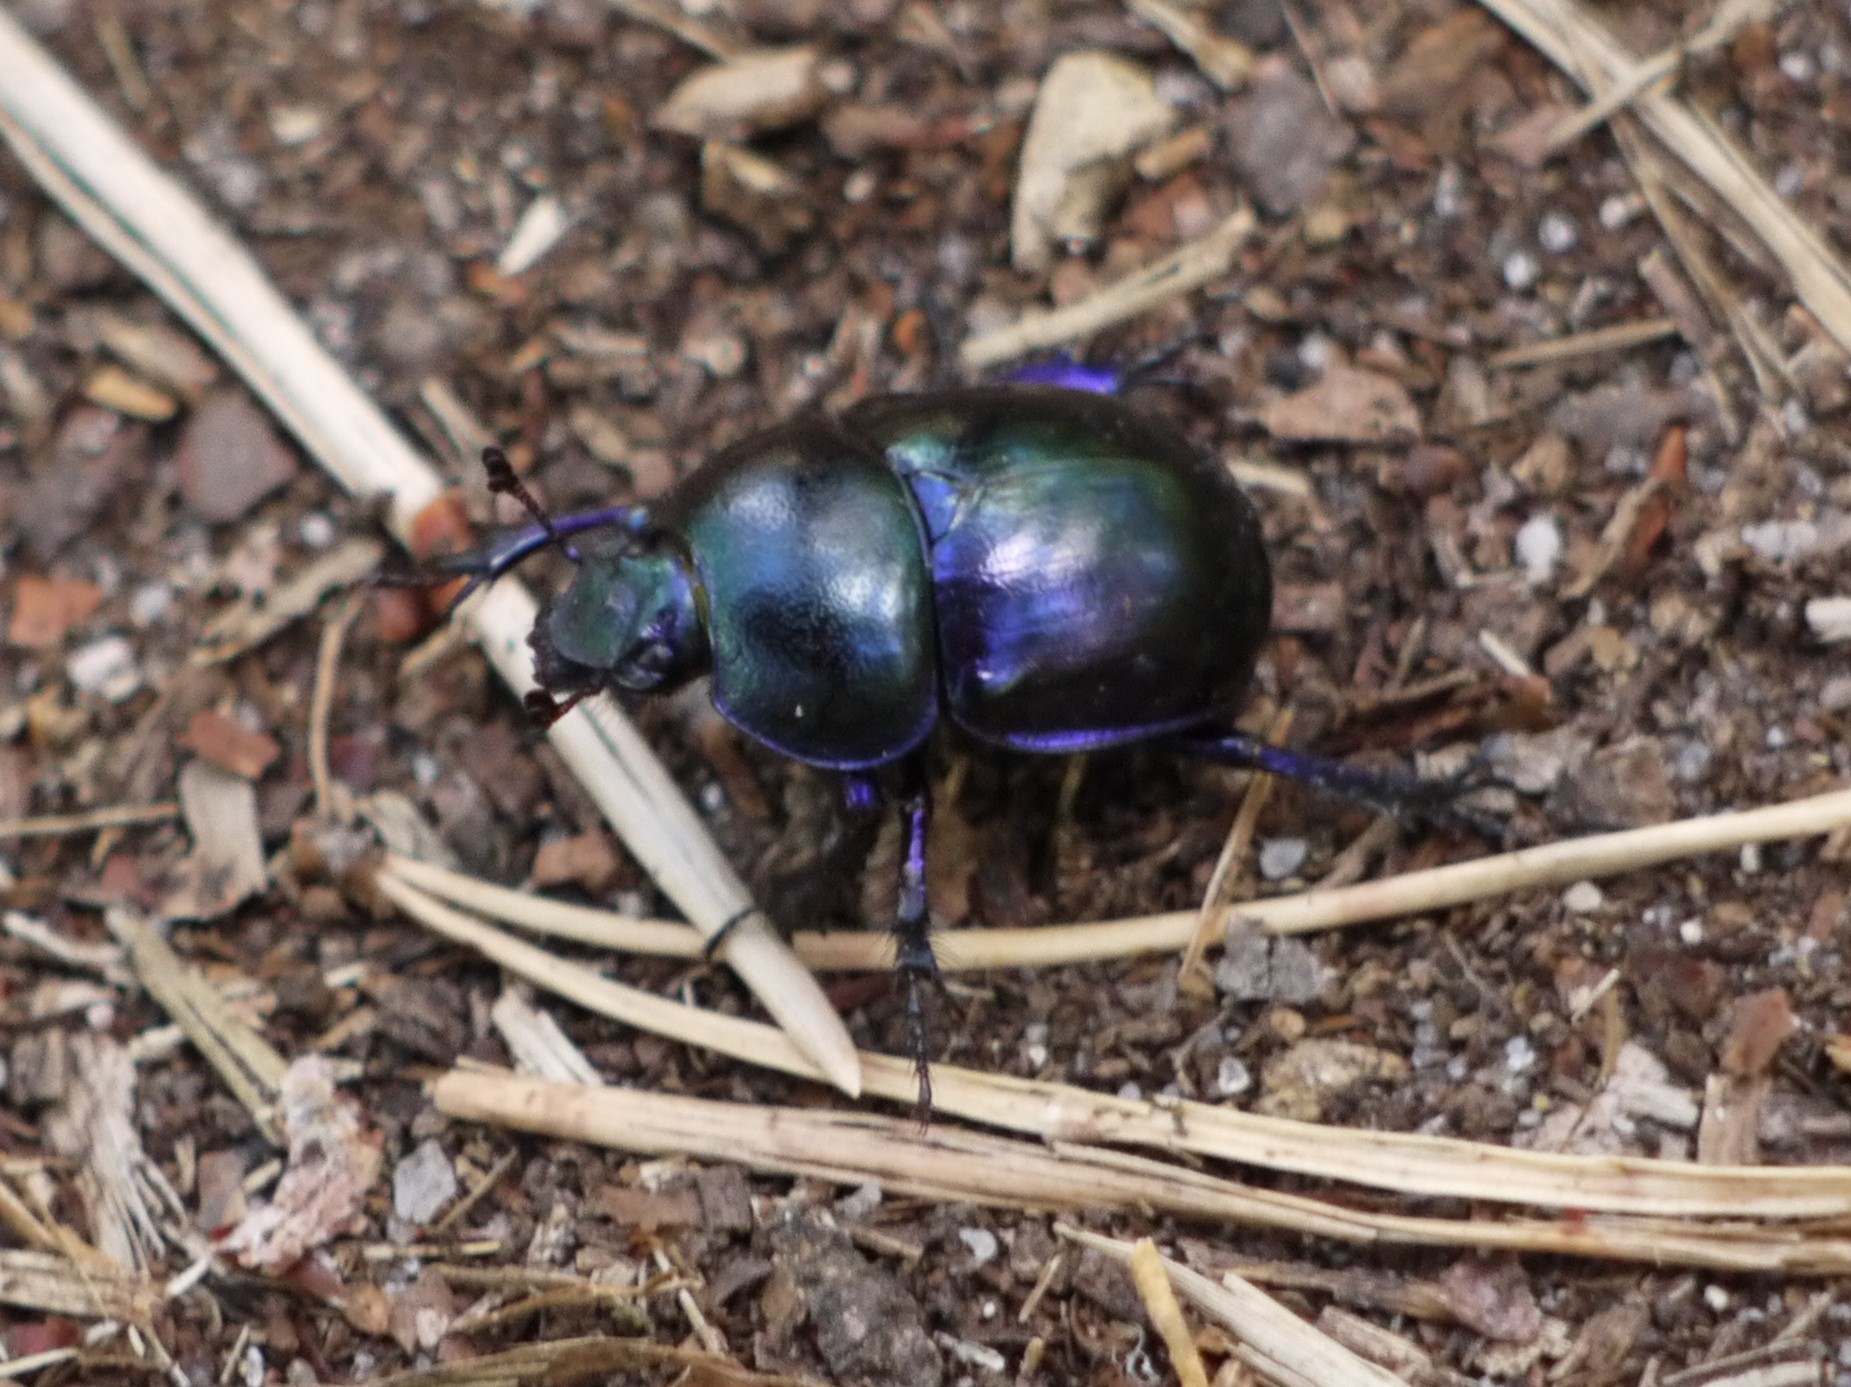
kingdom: Animalia
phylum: Arthropoda
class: Insecta
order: Coleoptera
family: Geotrupidae
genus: Trypocopris
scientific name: Trypocopris vernalis
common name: Spring dumbledor
